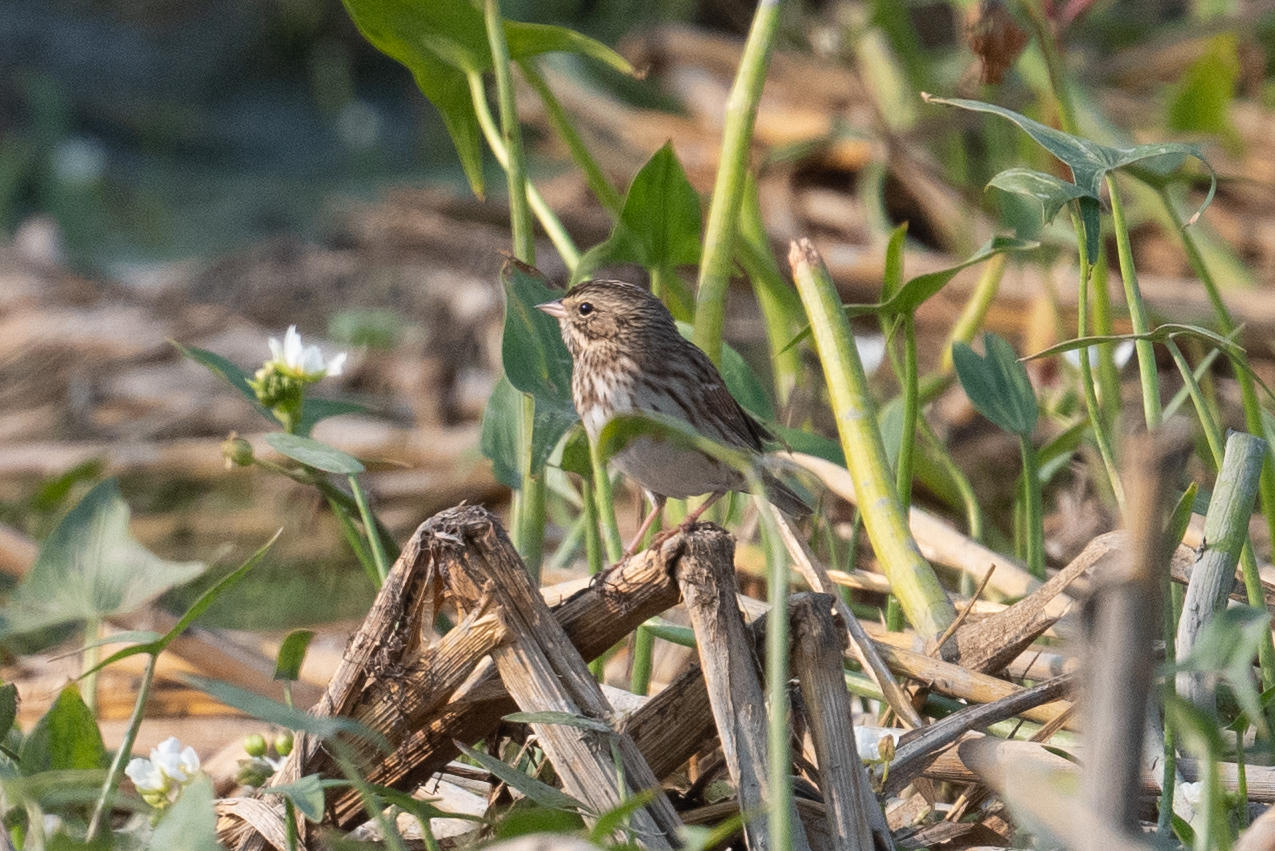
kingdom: Animalia
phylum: Chordata
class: Aves
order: Passeriformes
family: Passerellidae
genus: Passerculus
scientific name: Passerculus sandwichensis
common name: Savannah sparrow
